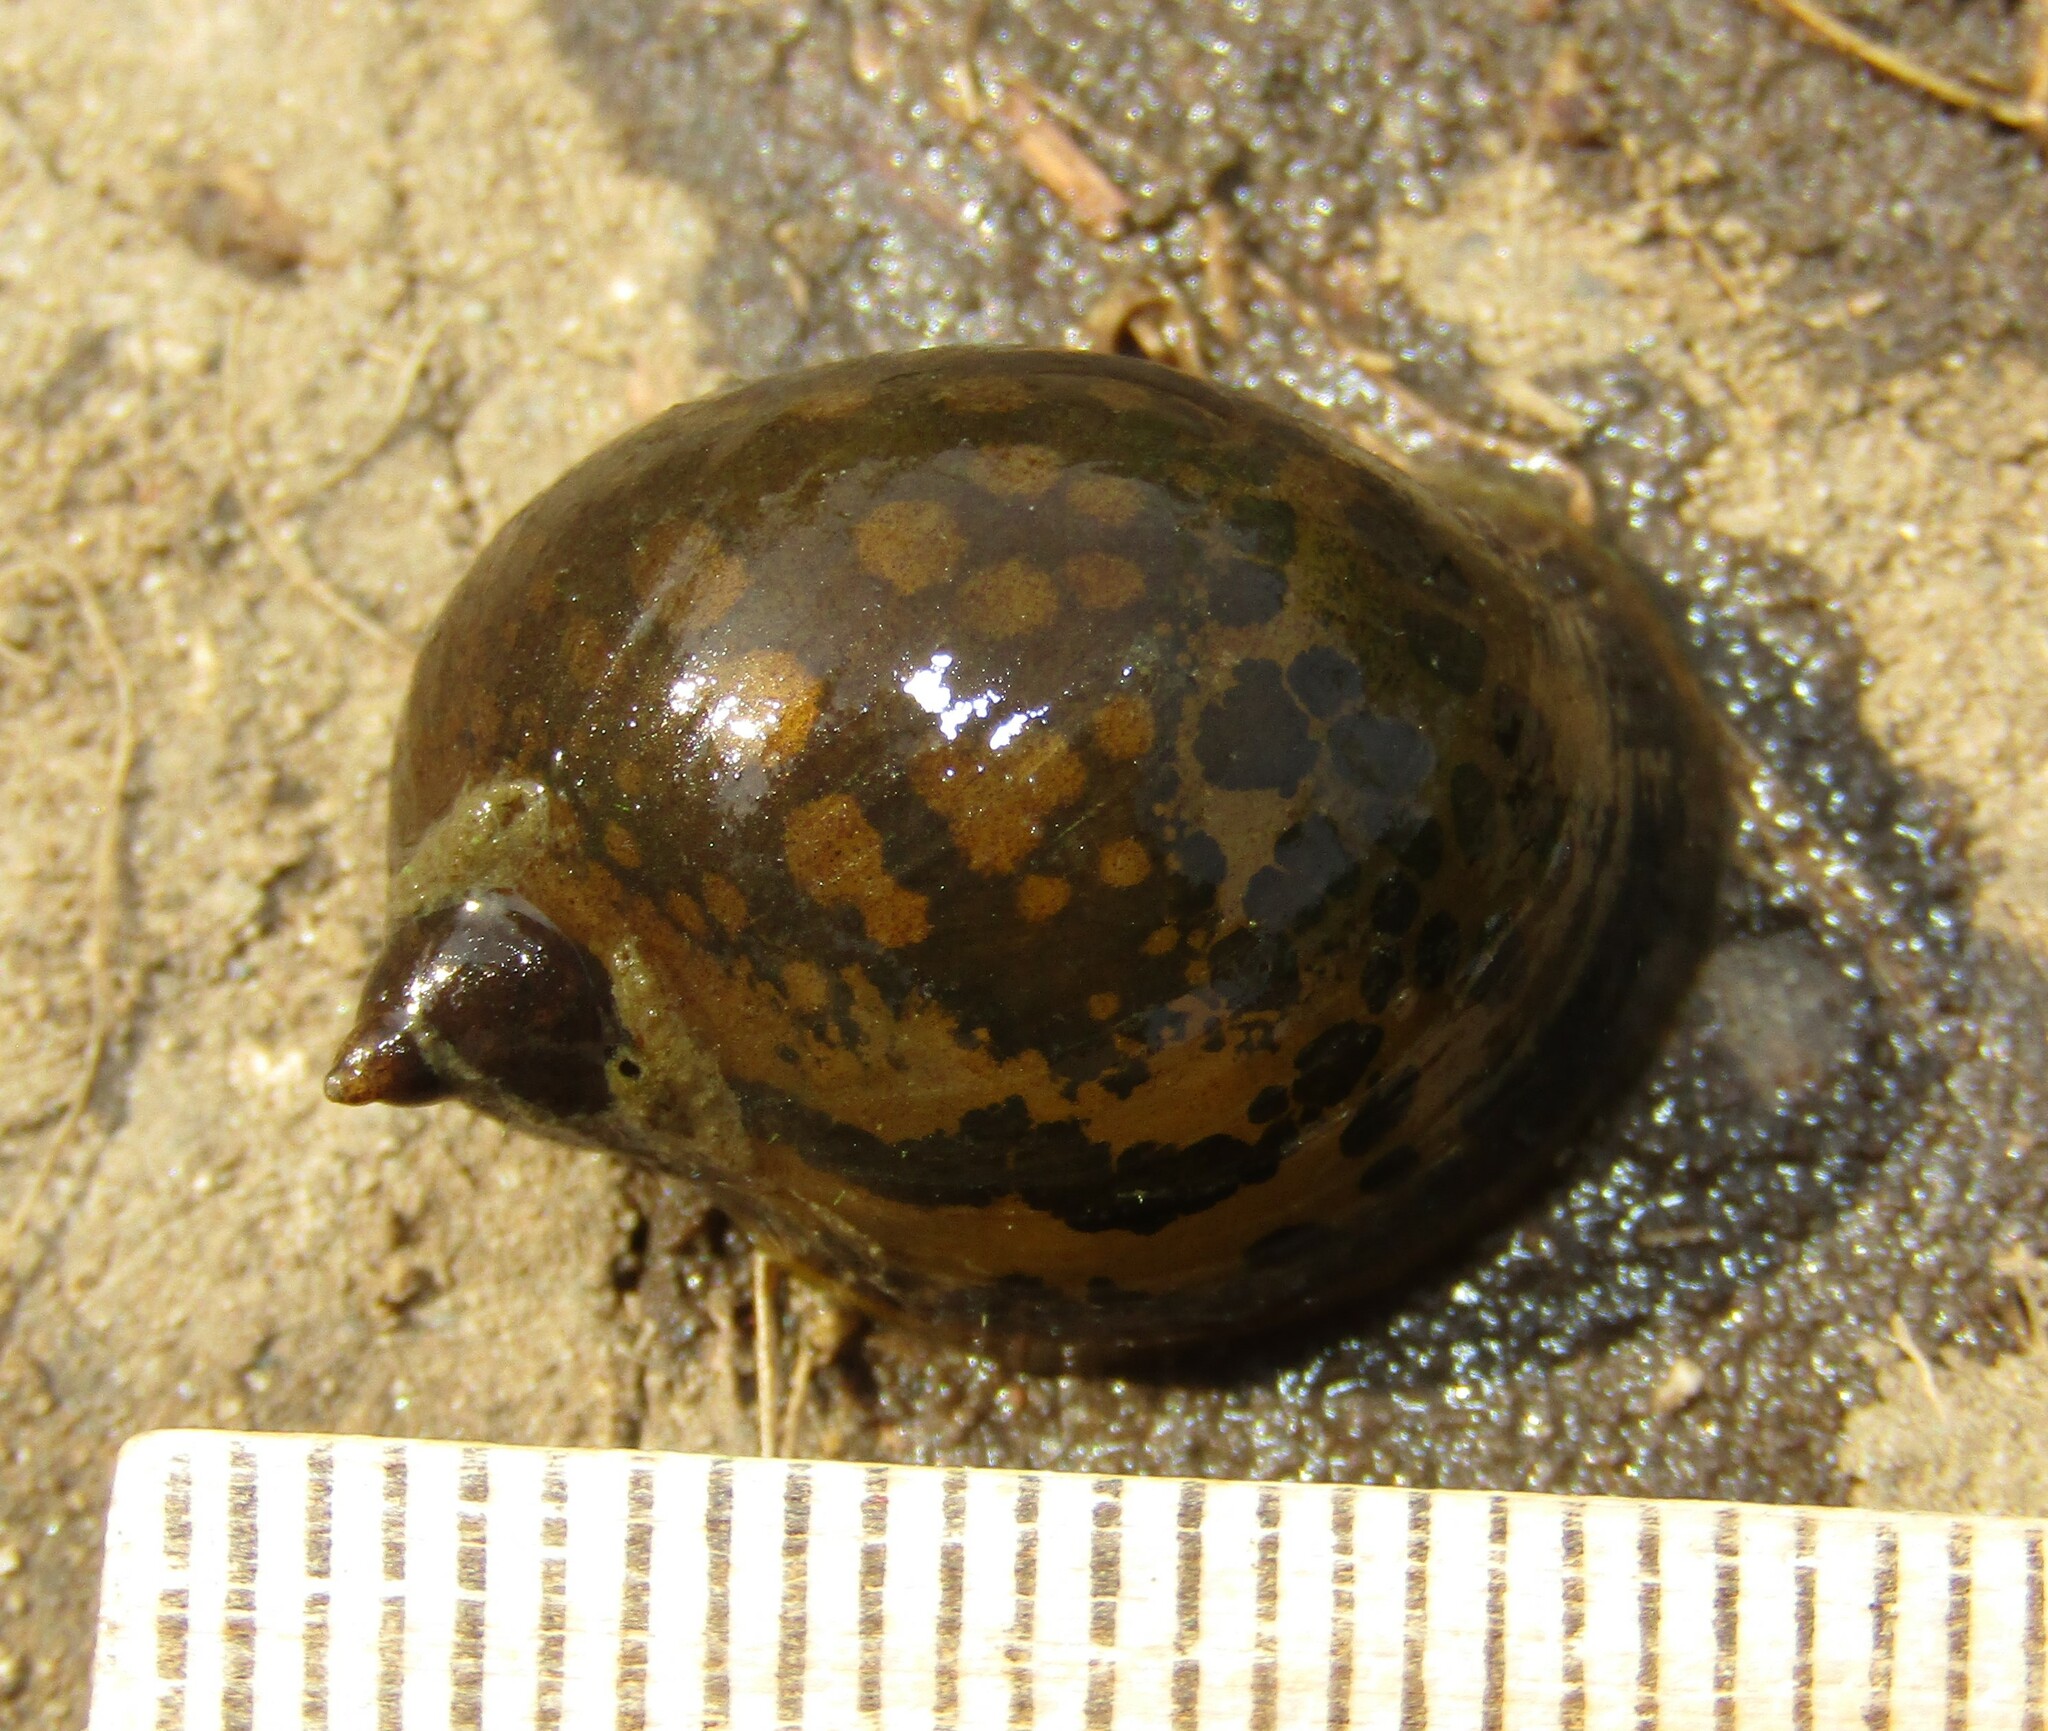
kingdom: Animalia
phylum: Mollusca
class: Gastropoda
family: Lymnaeidae
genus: Radix
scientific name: Radix auricularia
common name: Ear pond snail
